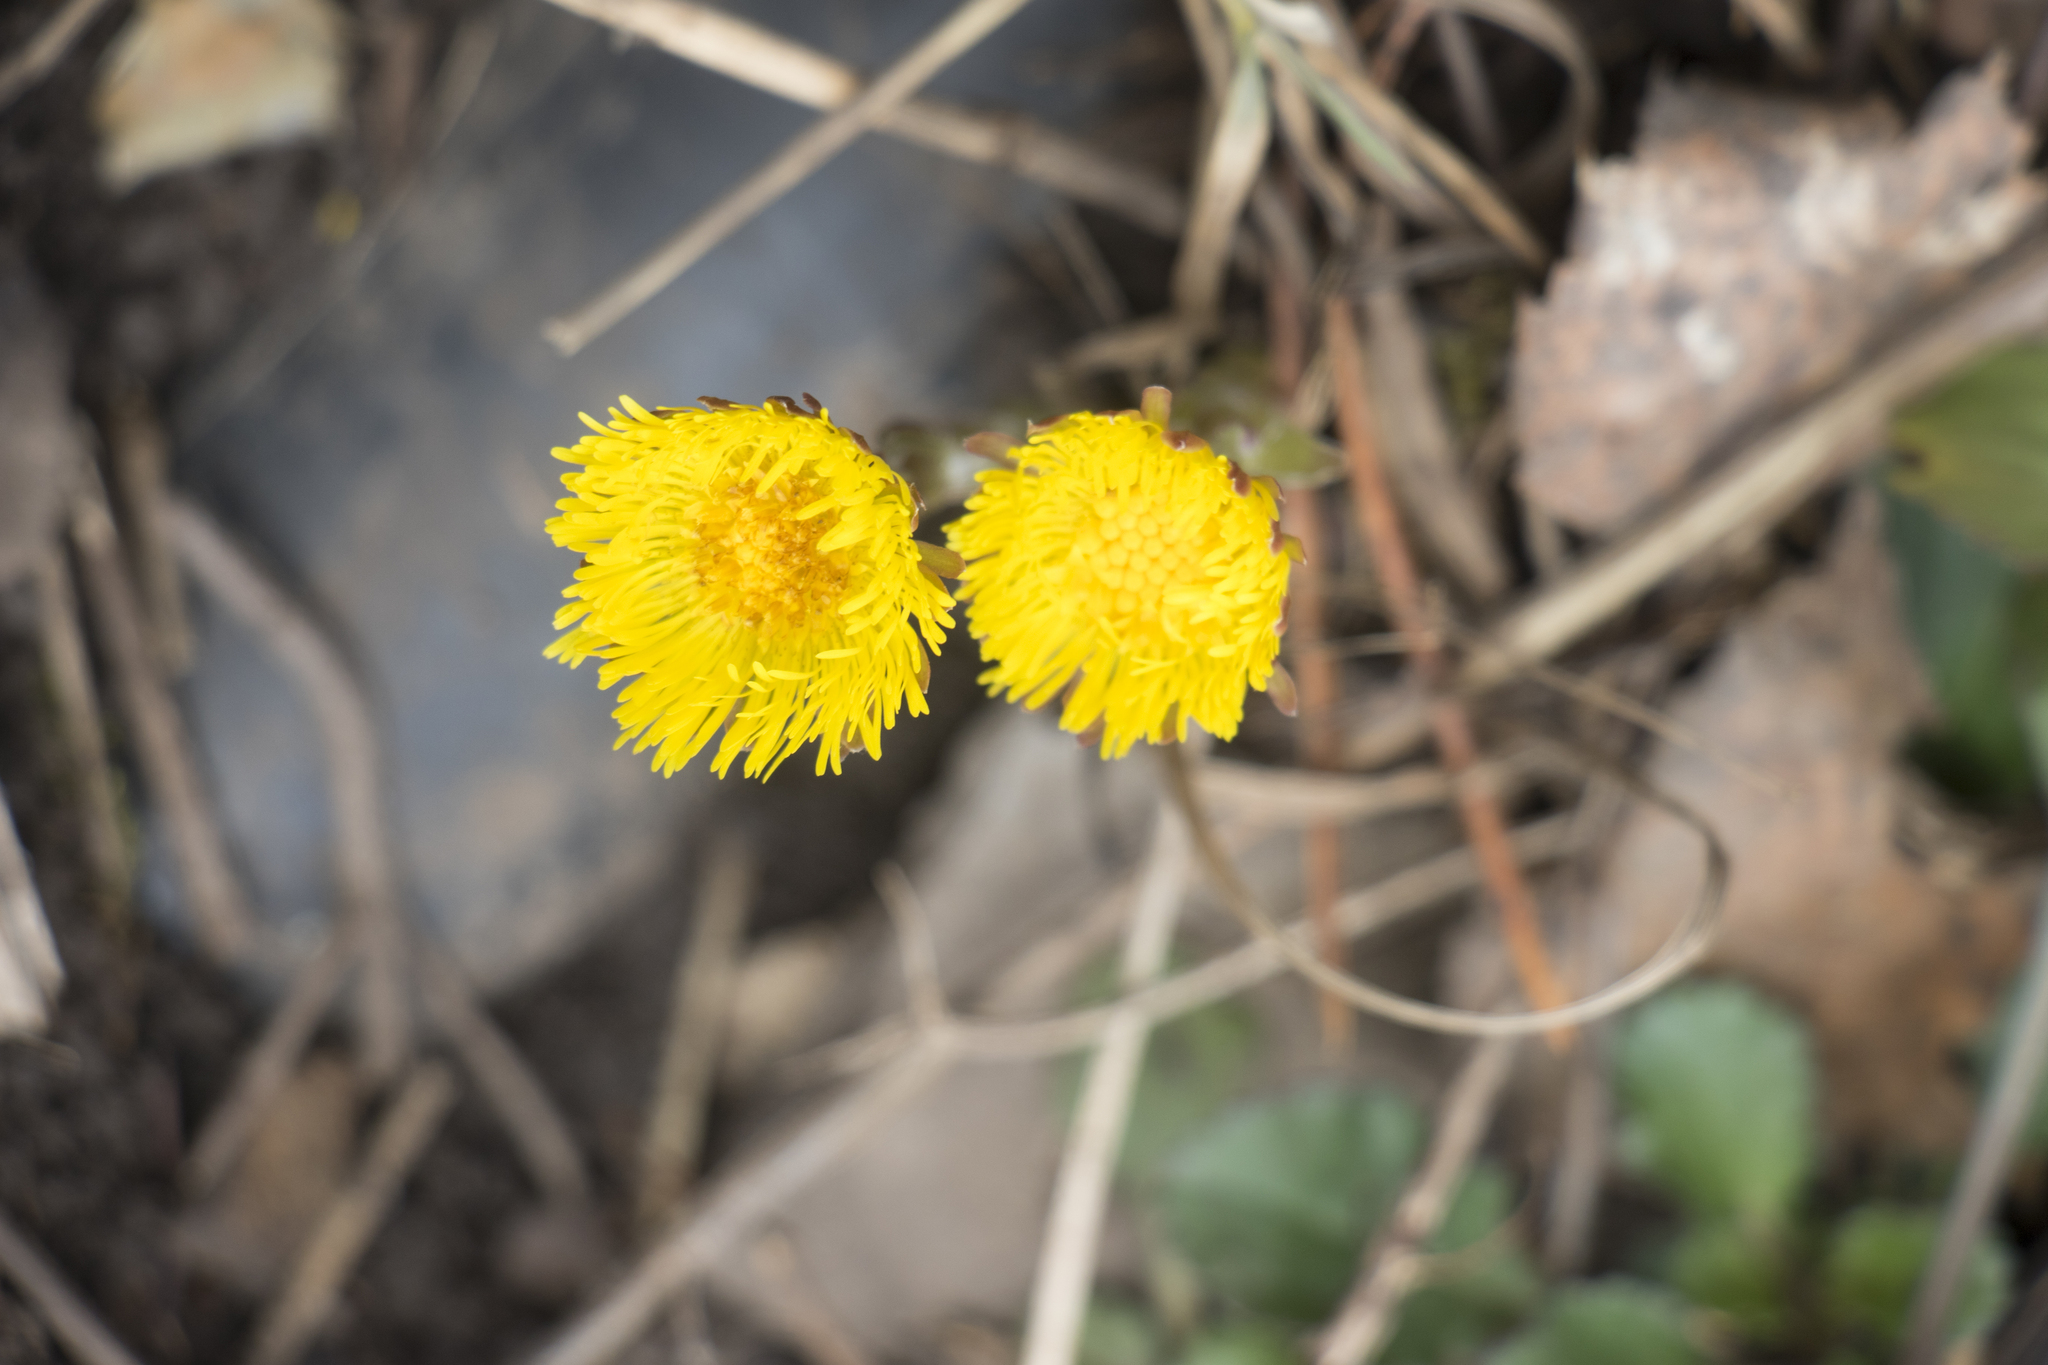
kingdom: Plantae
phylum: Tracheophyta
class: Magnoliopsida
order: Asterales
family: Asteraceae
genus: Tussilago
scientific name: Tussilago farfara
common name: Coltsfoot
